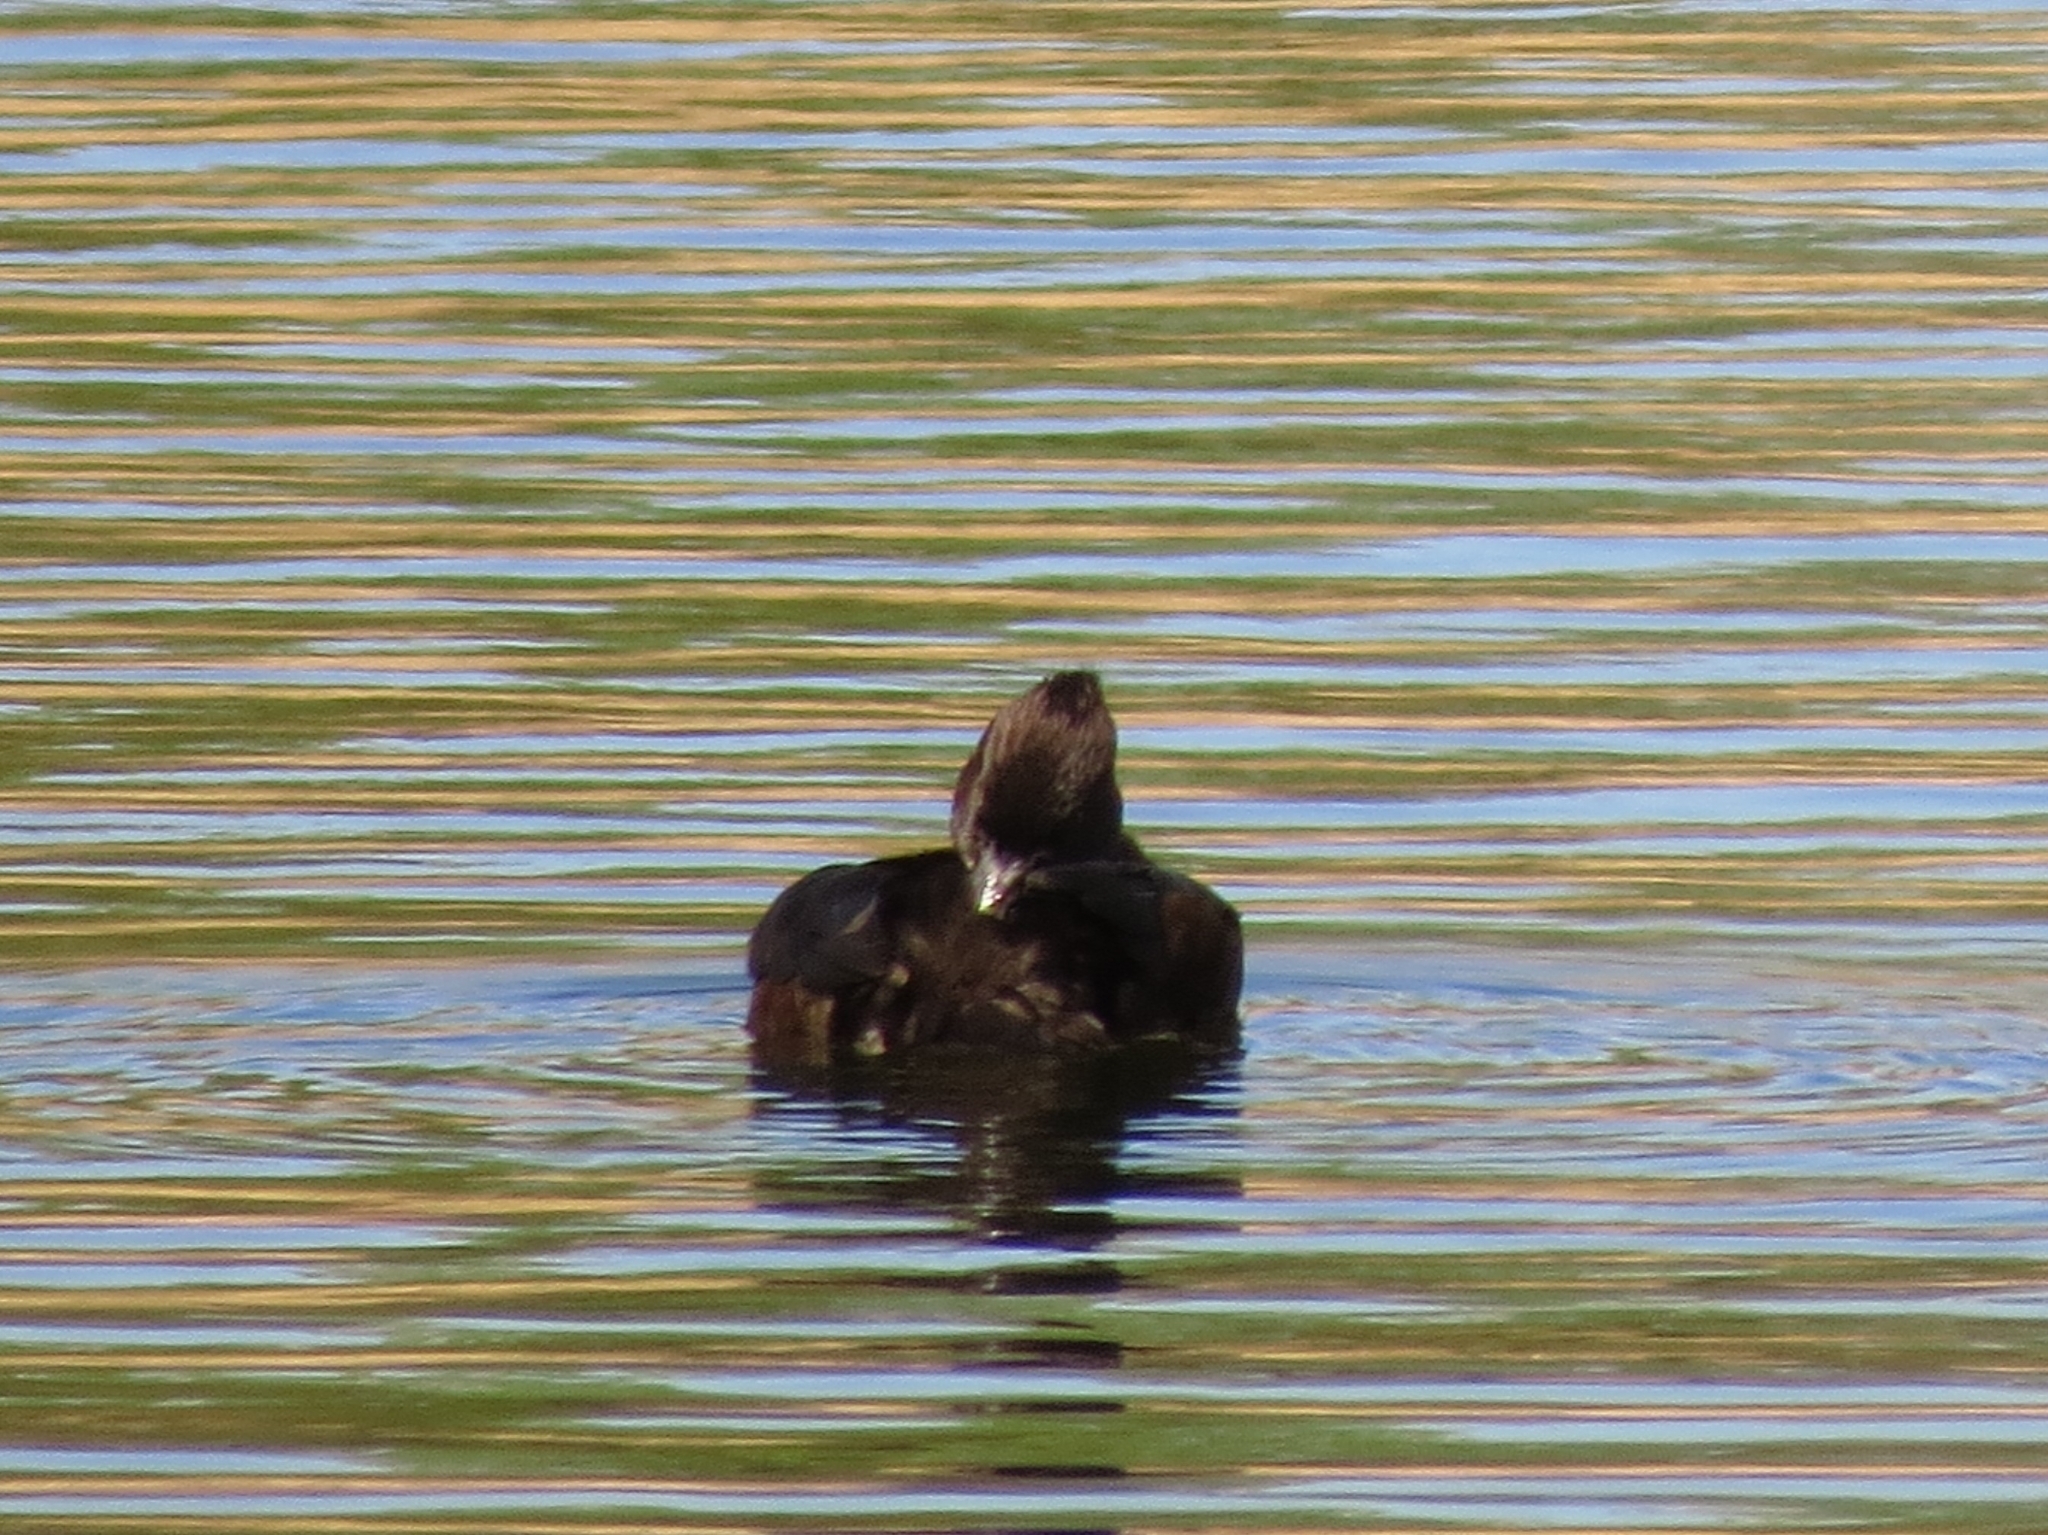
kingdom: Animalia
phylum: Chordata
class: Aves
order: Podicipediformes
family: Podicipedidae
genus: Tachybaptus
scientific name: Tachybaptus ruficollis
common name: Little grebe
